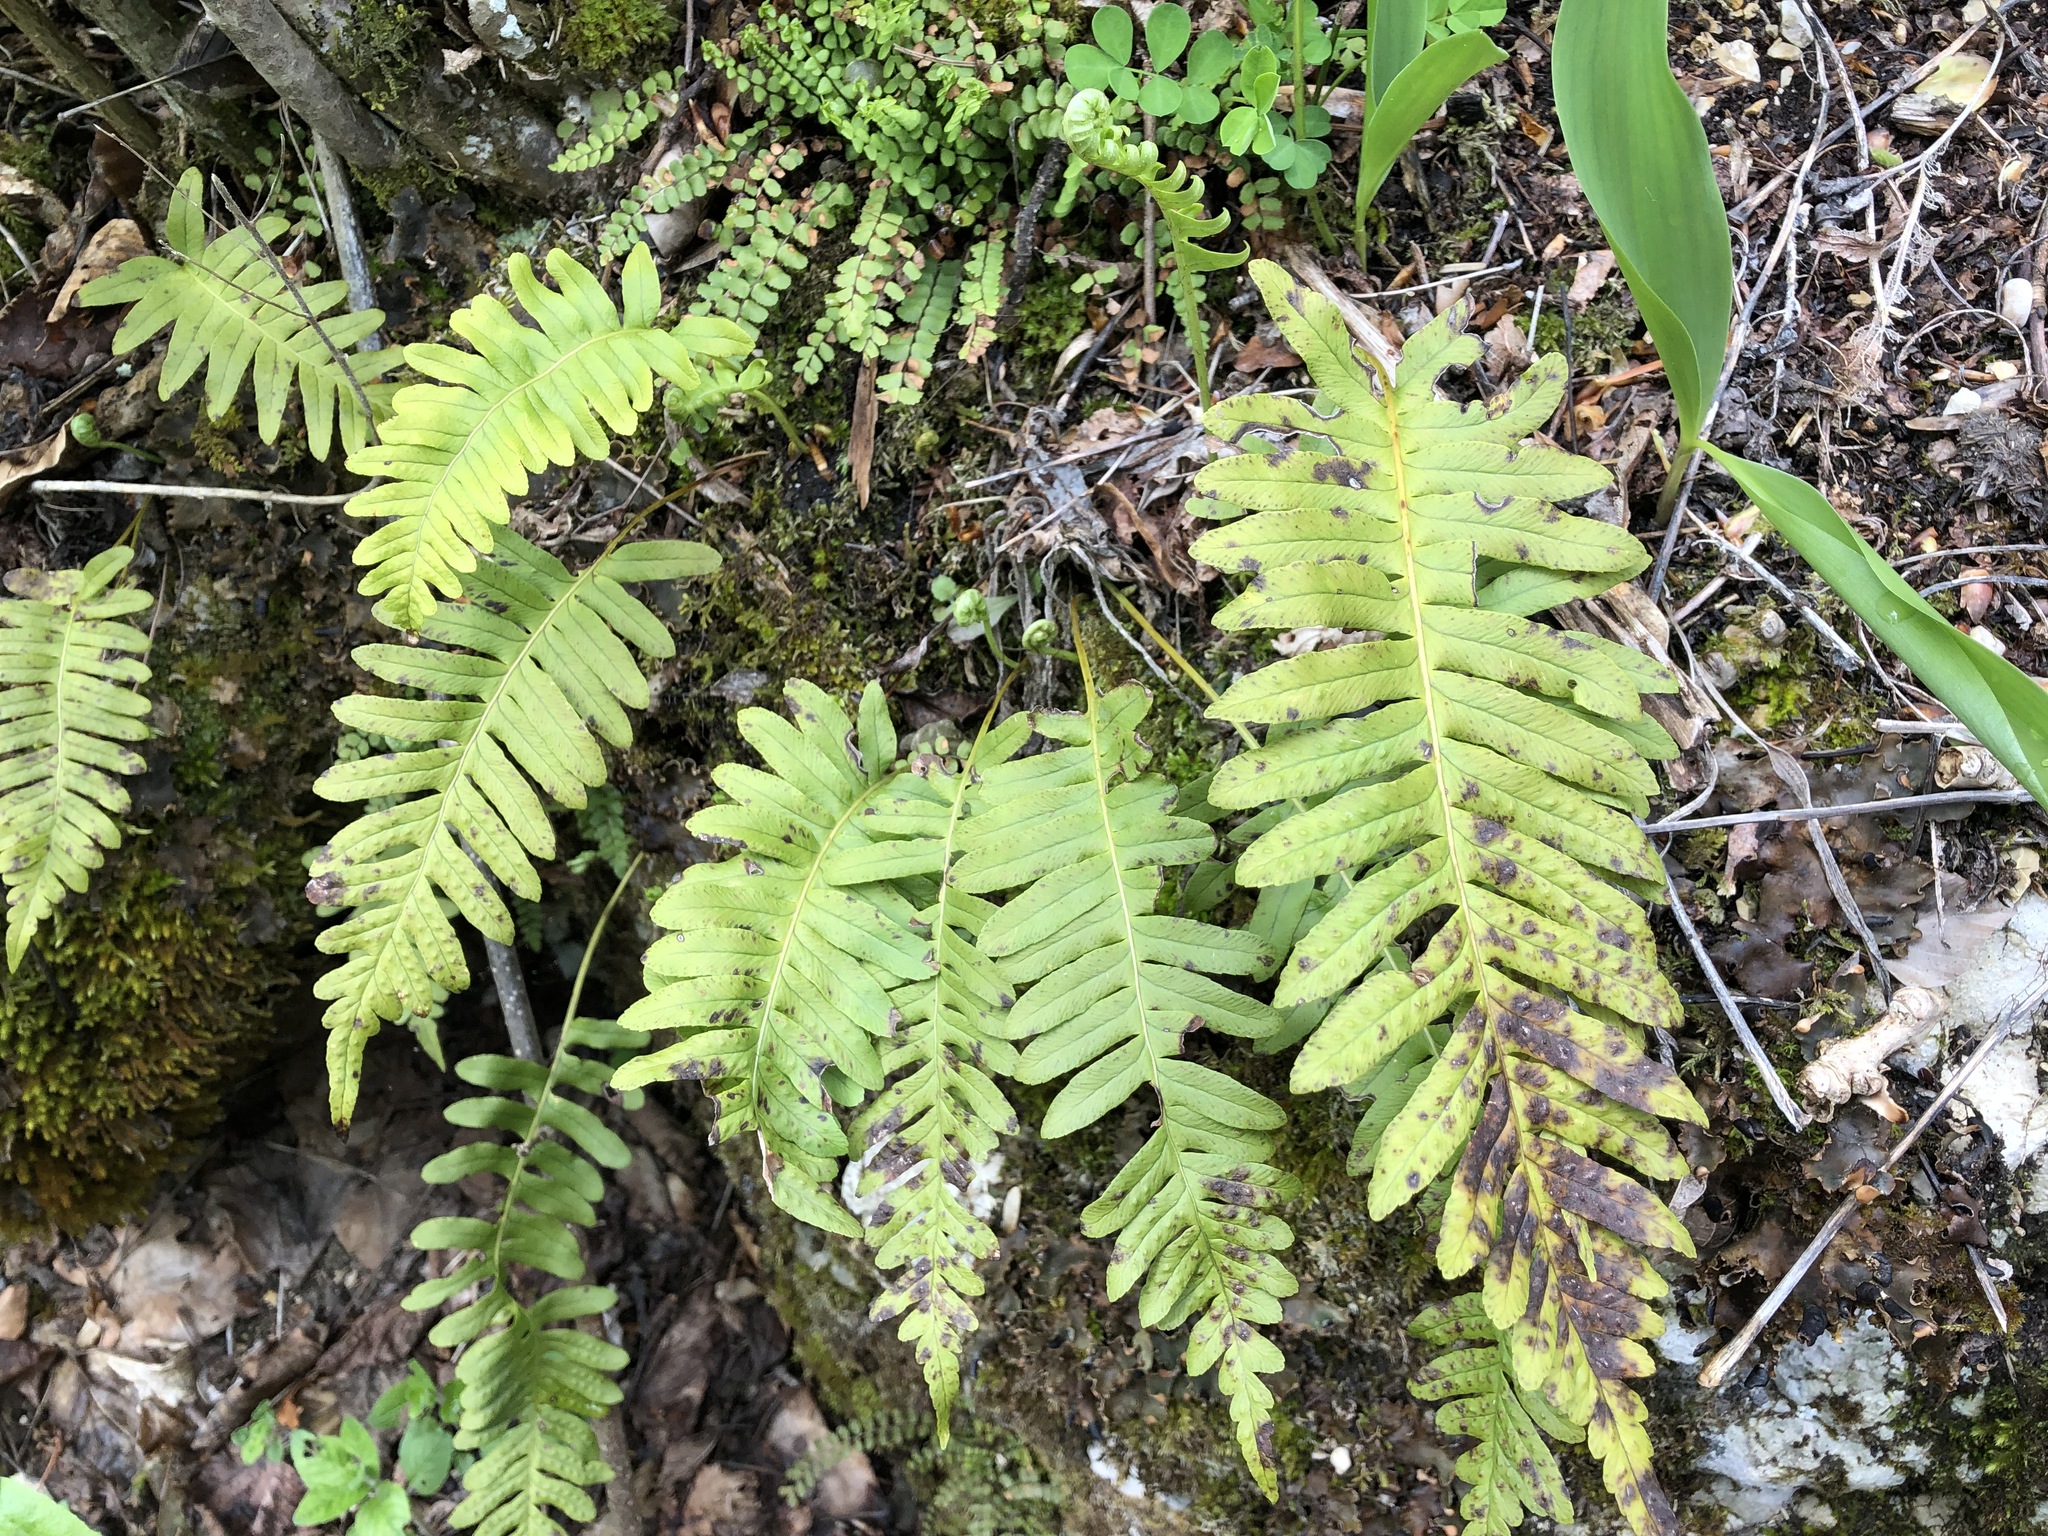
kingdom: Plantae
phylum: Tracheophyta
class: Polypodiopsida
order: Polypodiales
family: Polypodiaceae
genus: Polypodium
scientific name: Polypodium vulgare
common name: Common polypody
